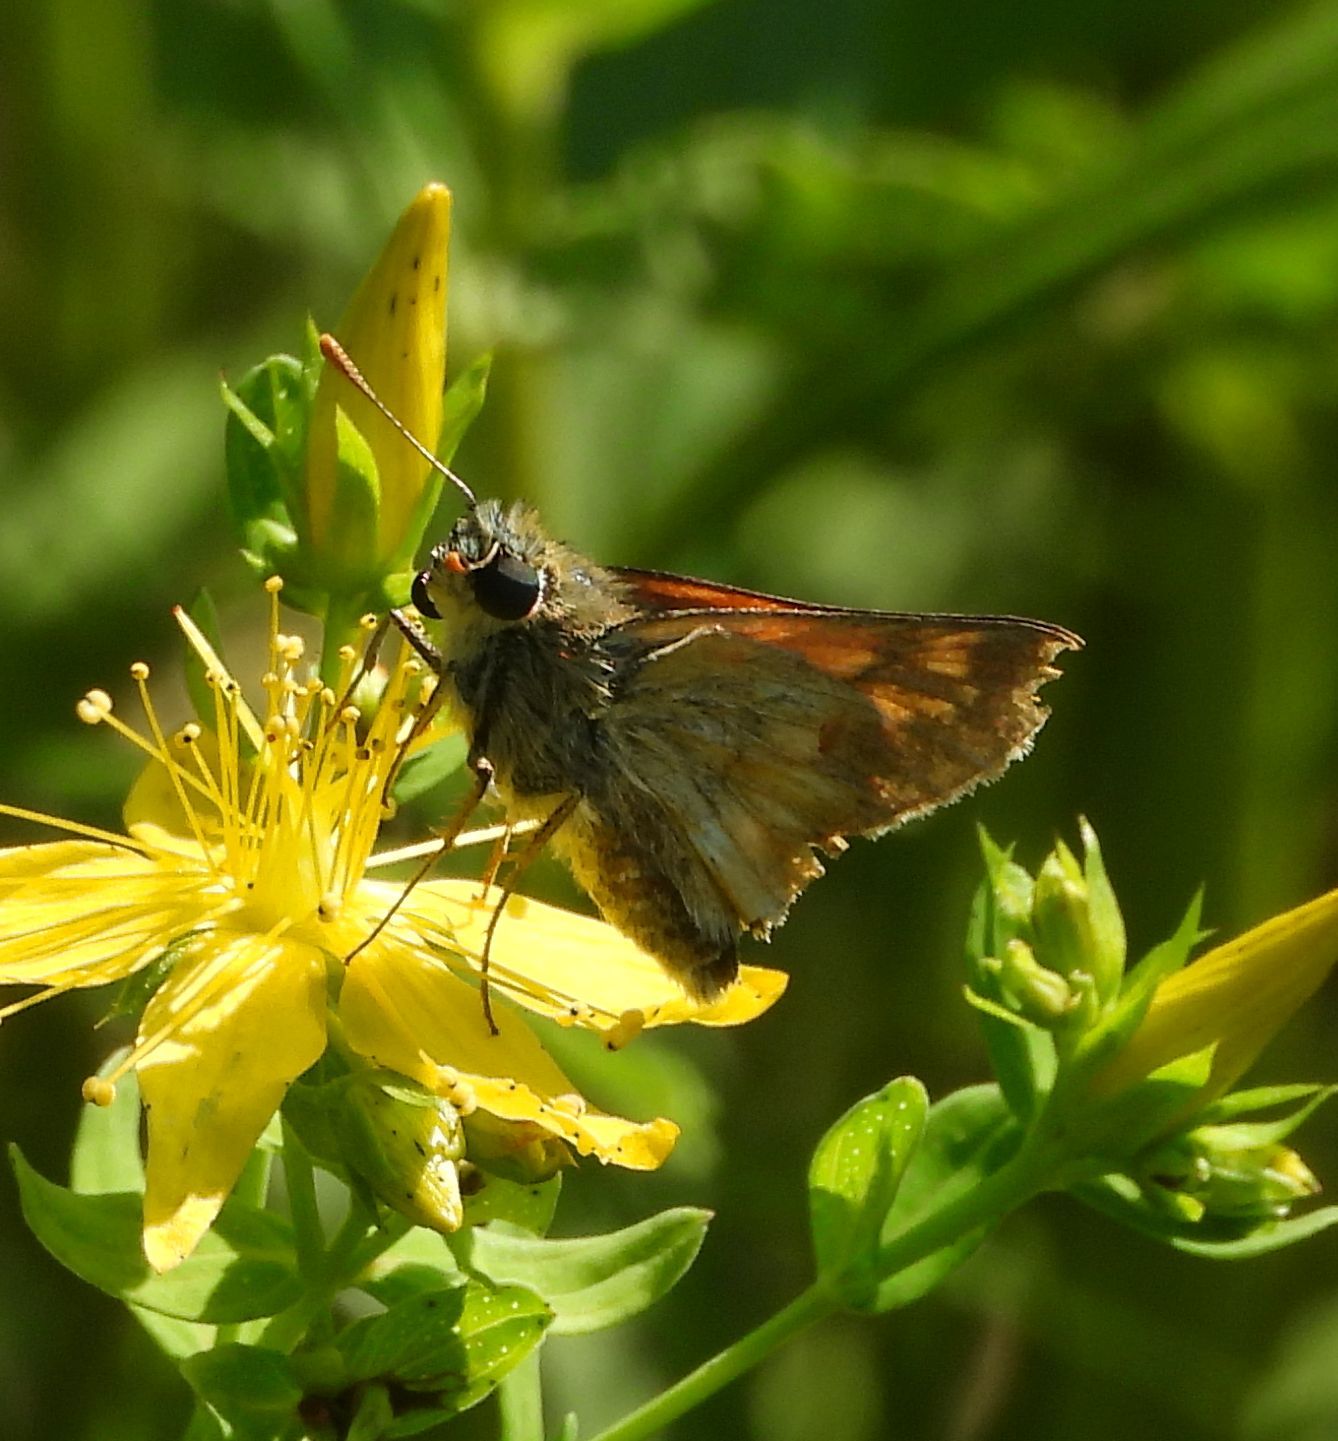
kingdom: Animalia
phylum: Arthropoda
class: Insecta
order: Lepidoptera
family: Hesperiidae
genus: Polites
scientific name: Polites mystic
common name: Long dash
